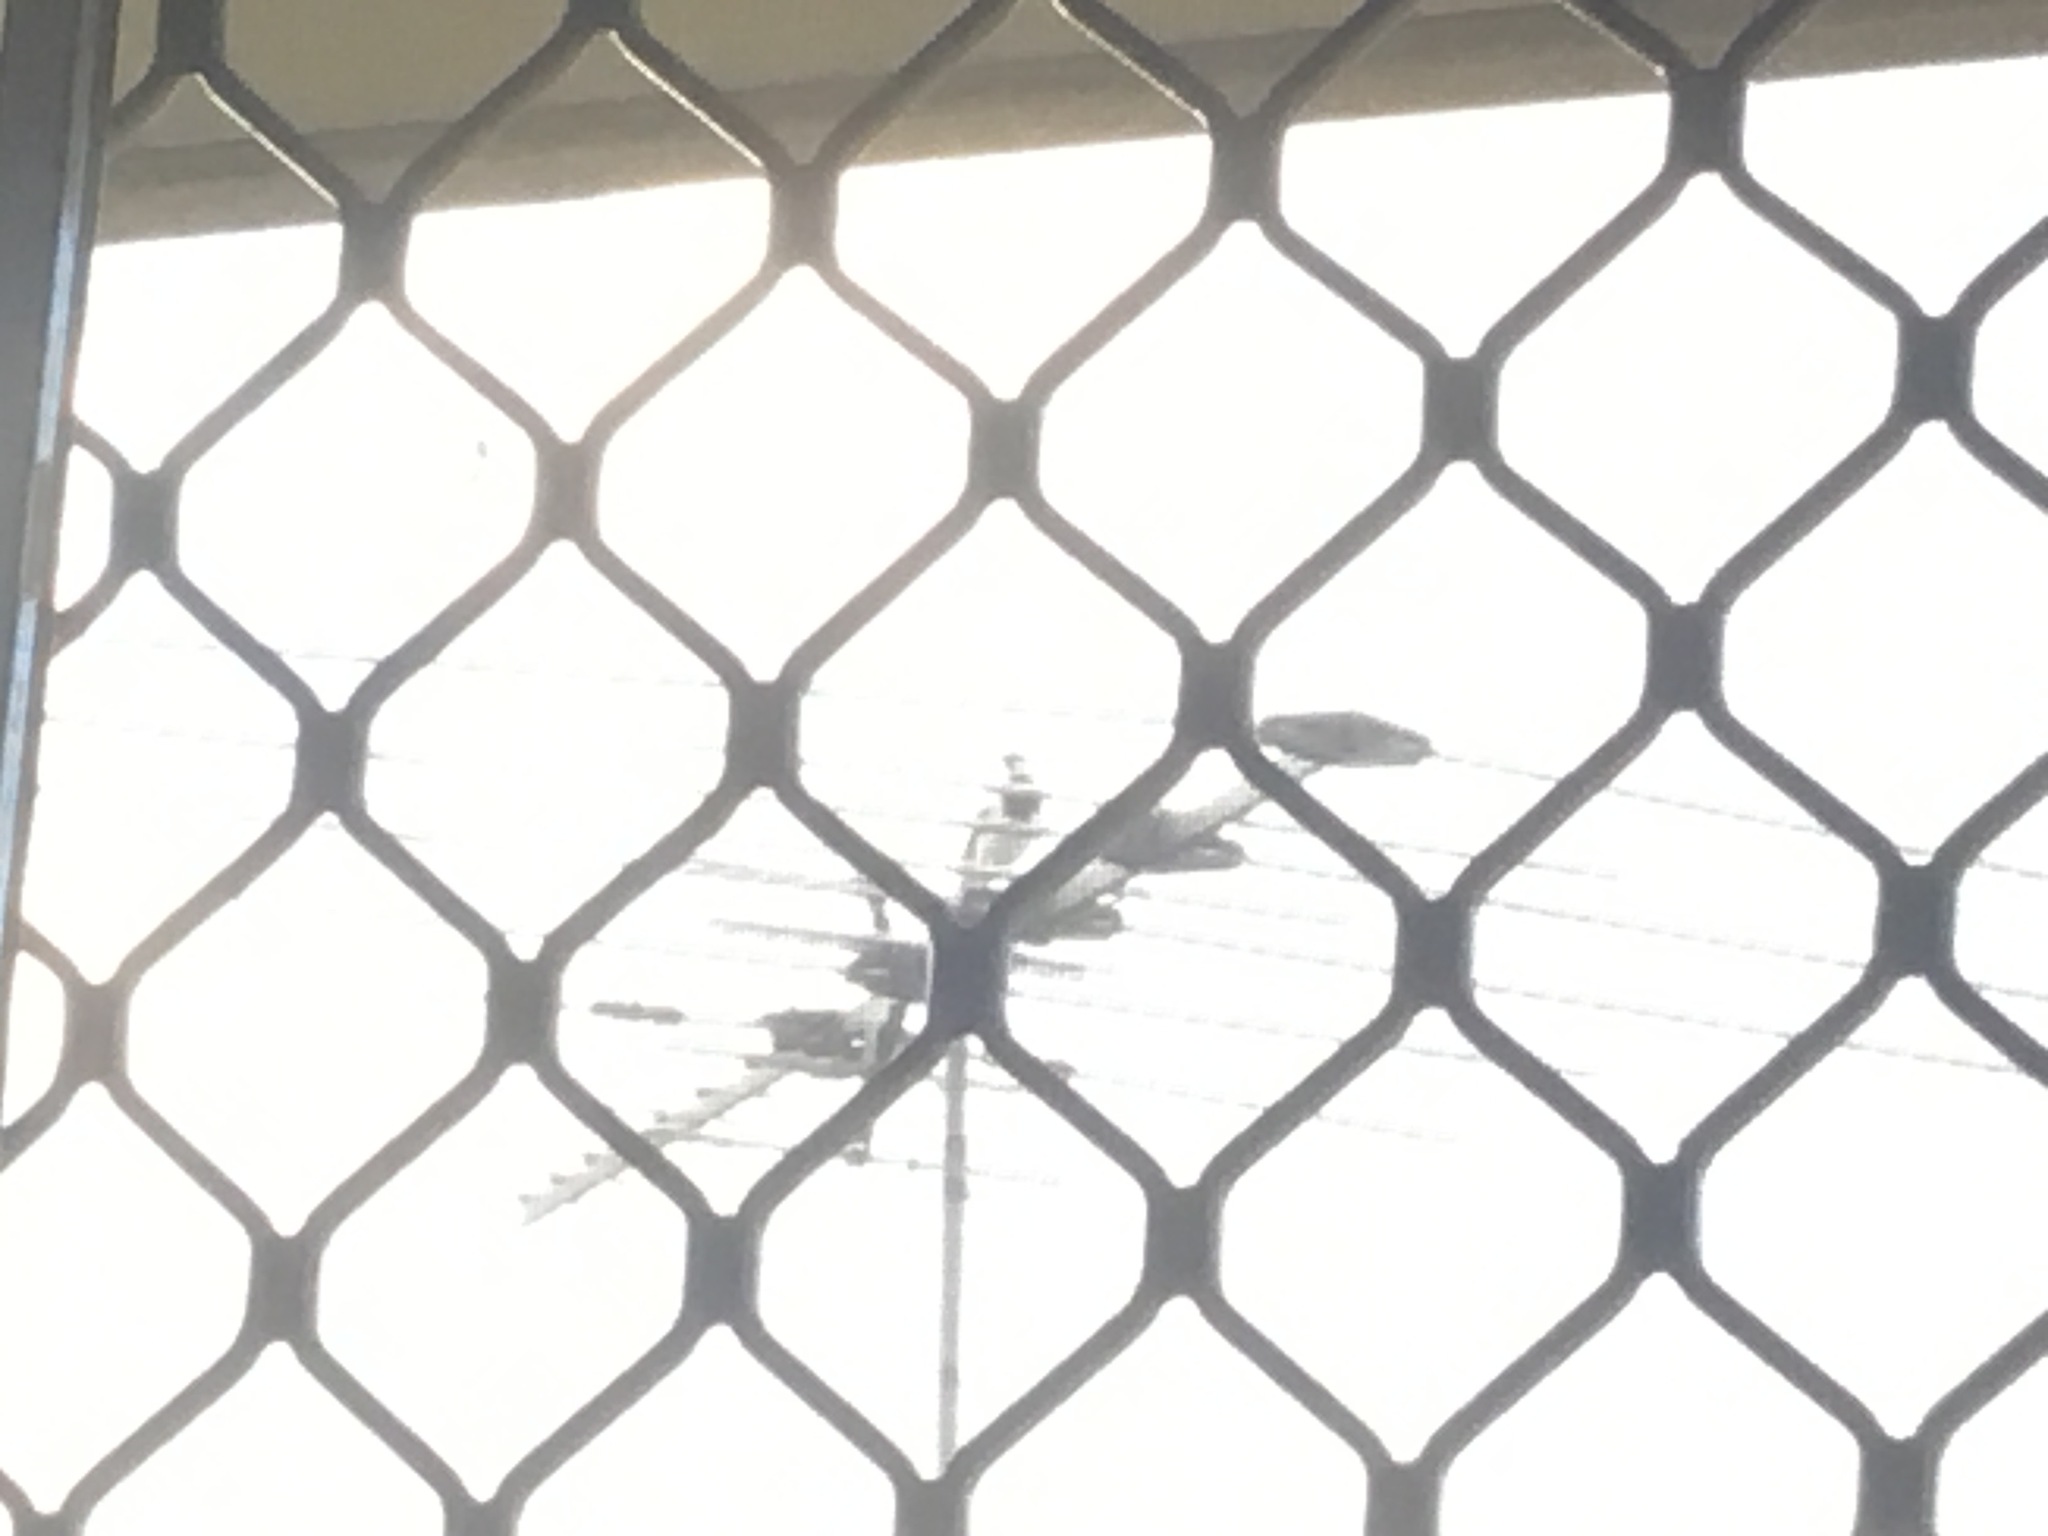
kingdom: Animalia
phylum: Chordata
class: Aves
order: Passeriformes
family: Monarchidae
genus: Grallina
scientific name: Grallina cyanoleuca
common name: Magpie-lark
